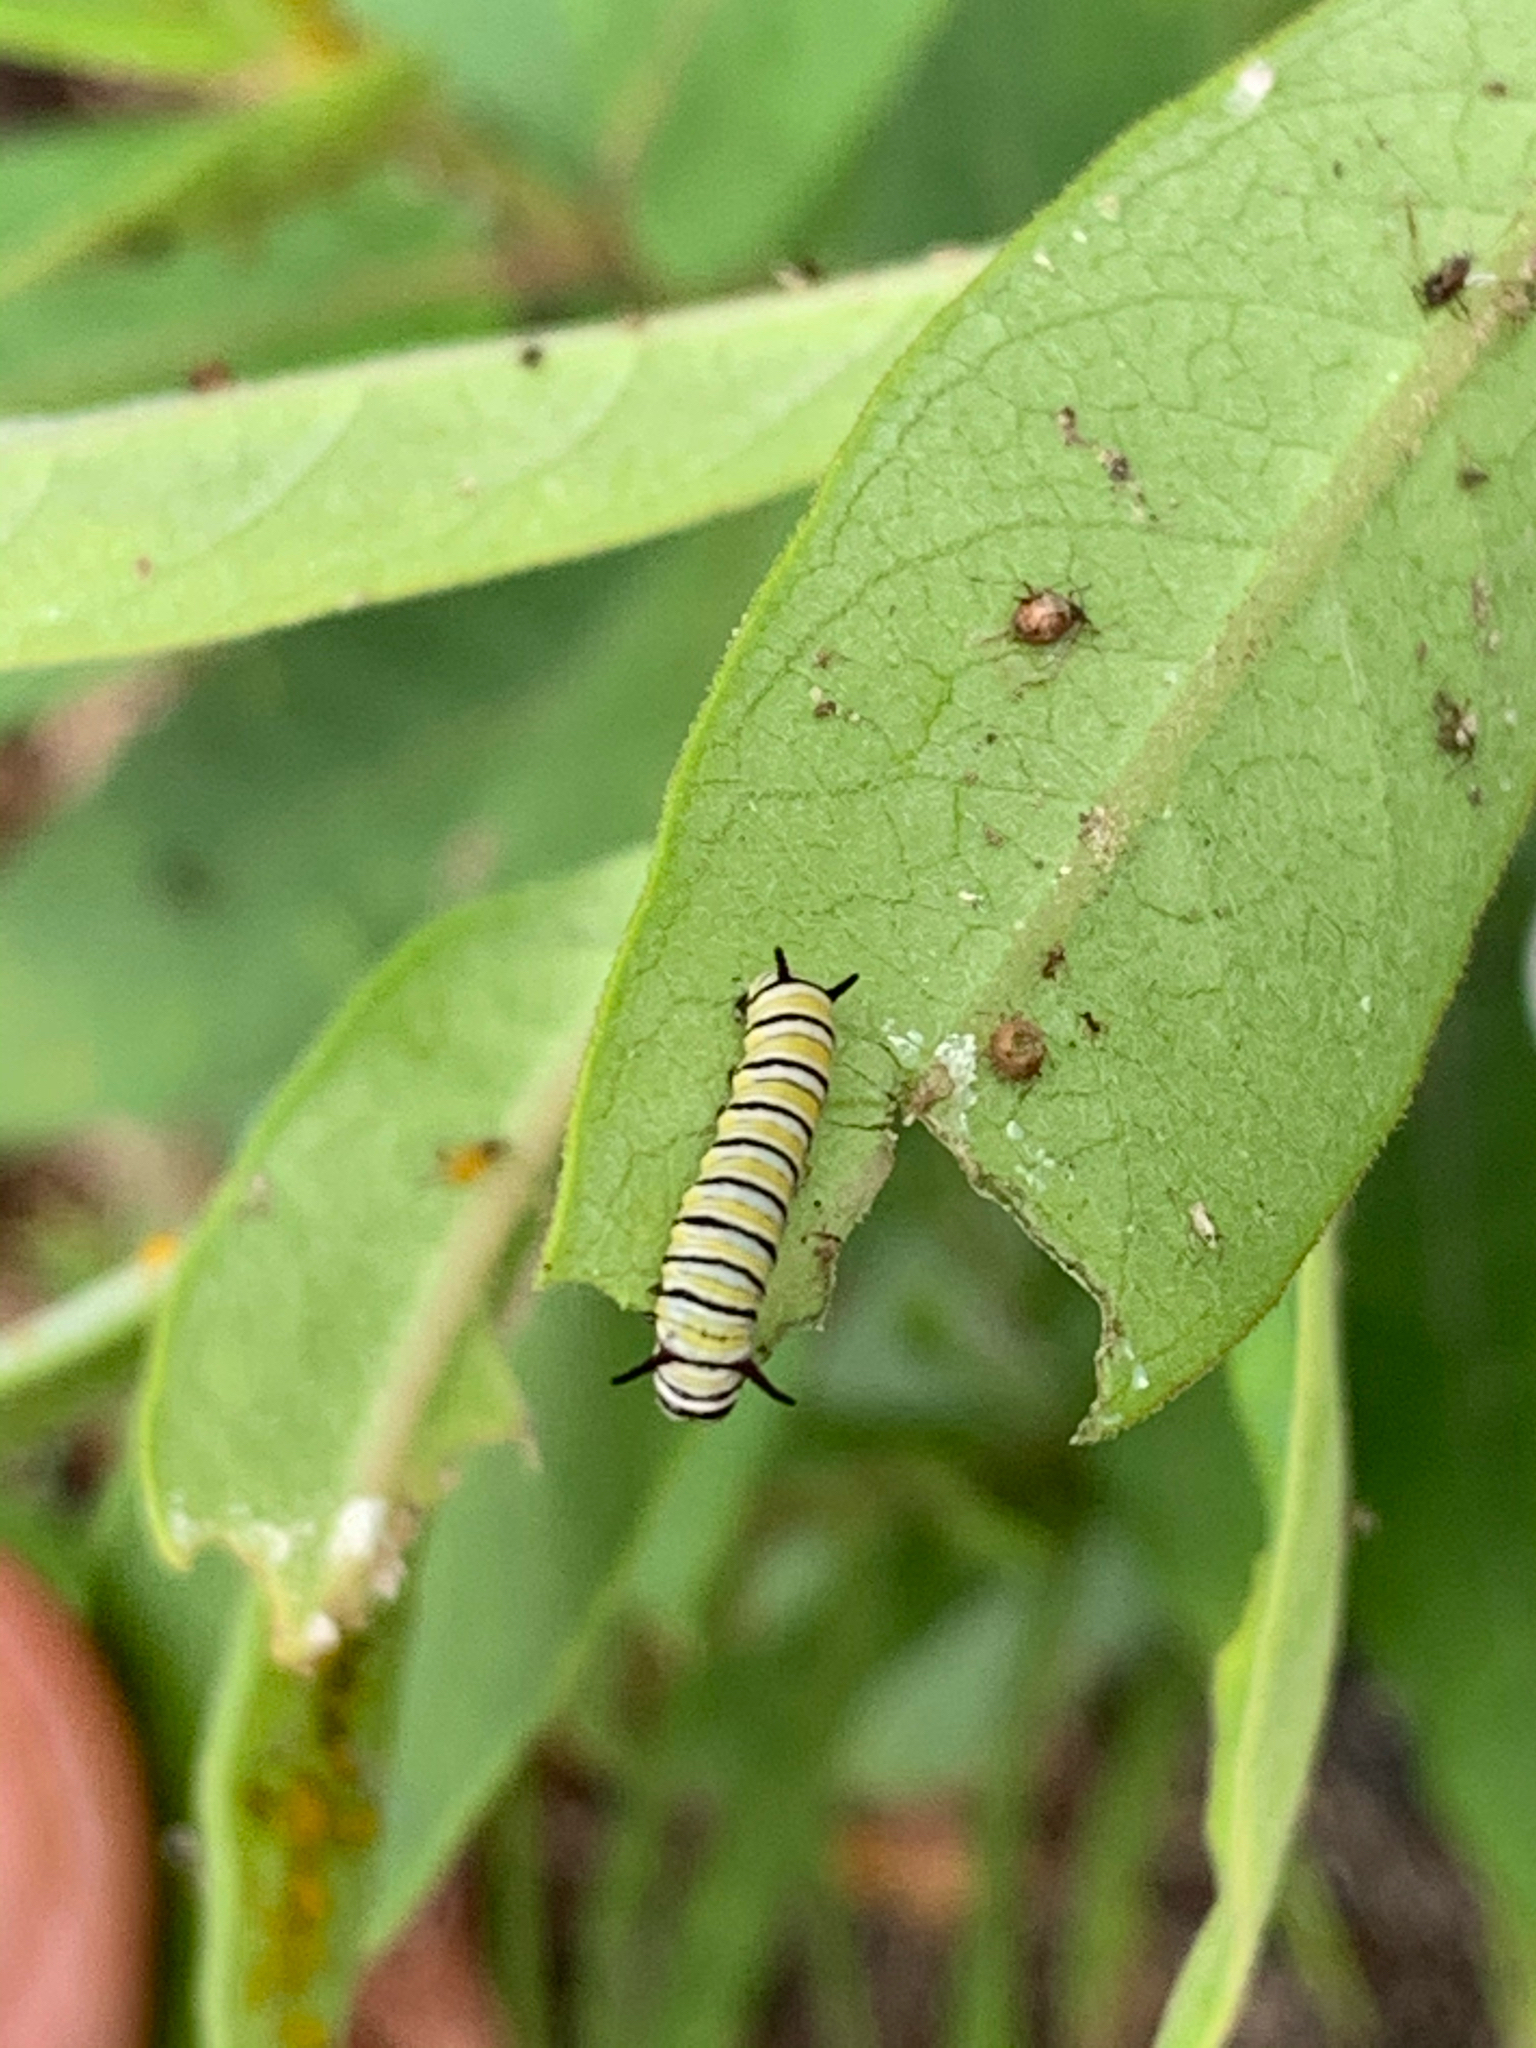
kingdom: Animalia
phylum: Arthropoda
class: Insecta
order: Lepidoptera
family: Nymphalidae
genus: Danaus
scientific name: Danaus plexippus
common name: Monarch
